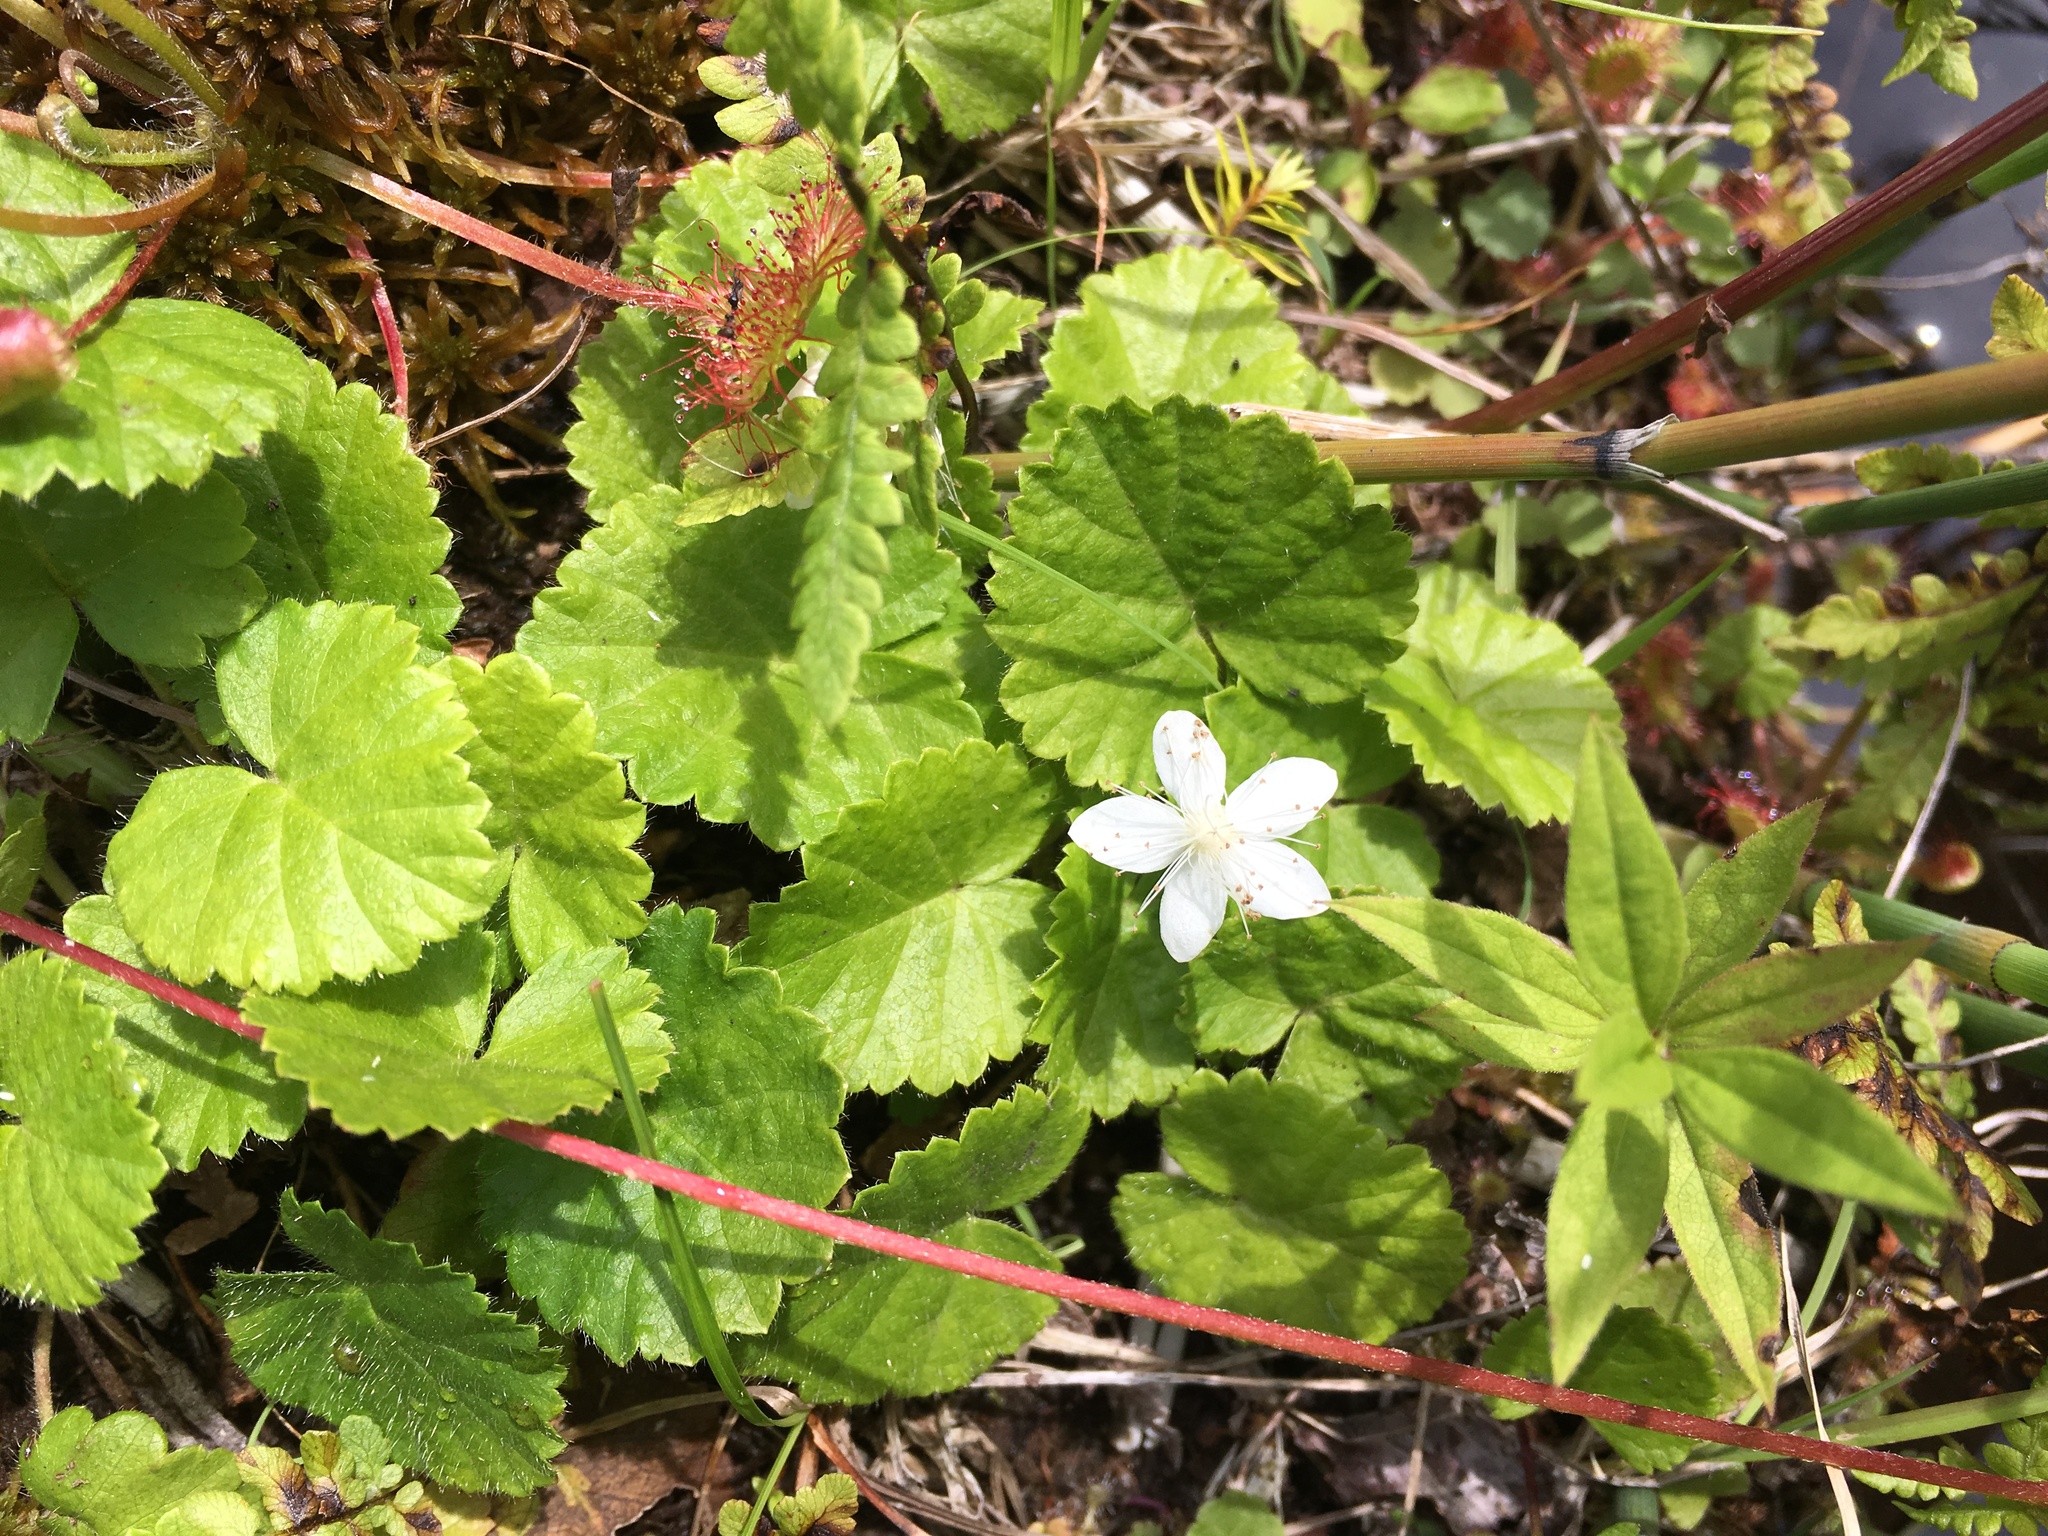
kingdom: Plantae
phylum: Tracheophyta
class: Magnoliopsida
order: Rosales
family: Rosaceae
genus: Dalibarda
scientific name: Dalibarda repens
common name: Dewdrop
